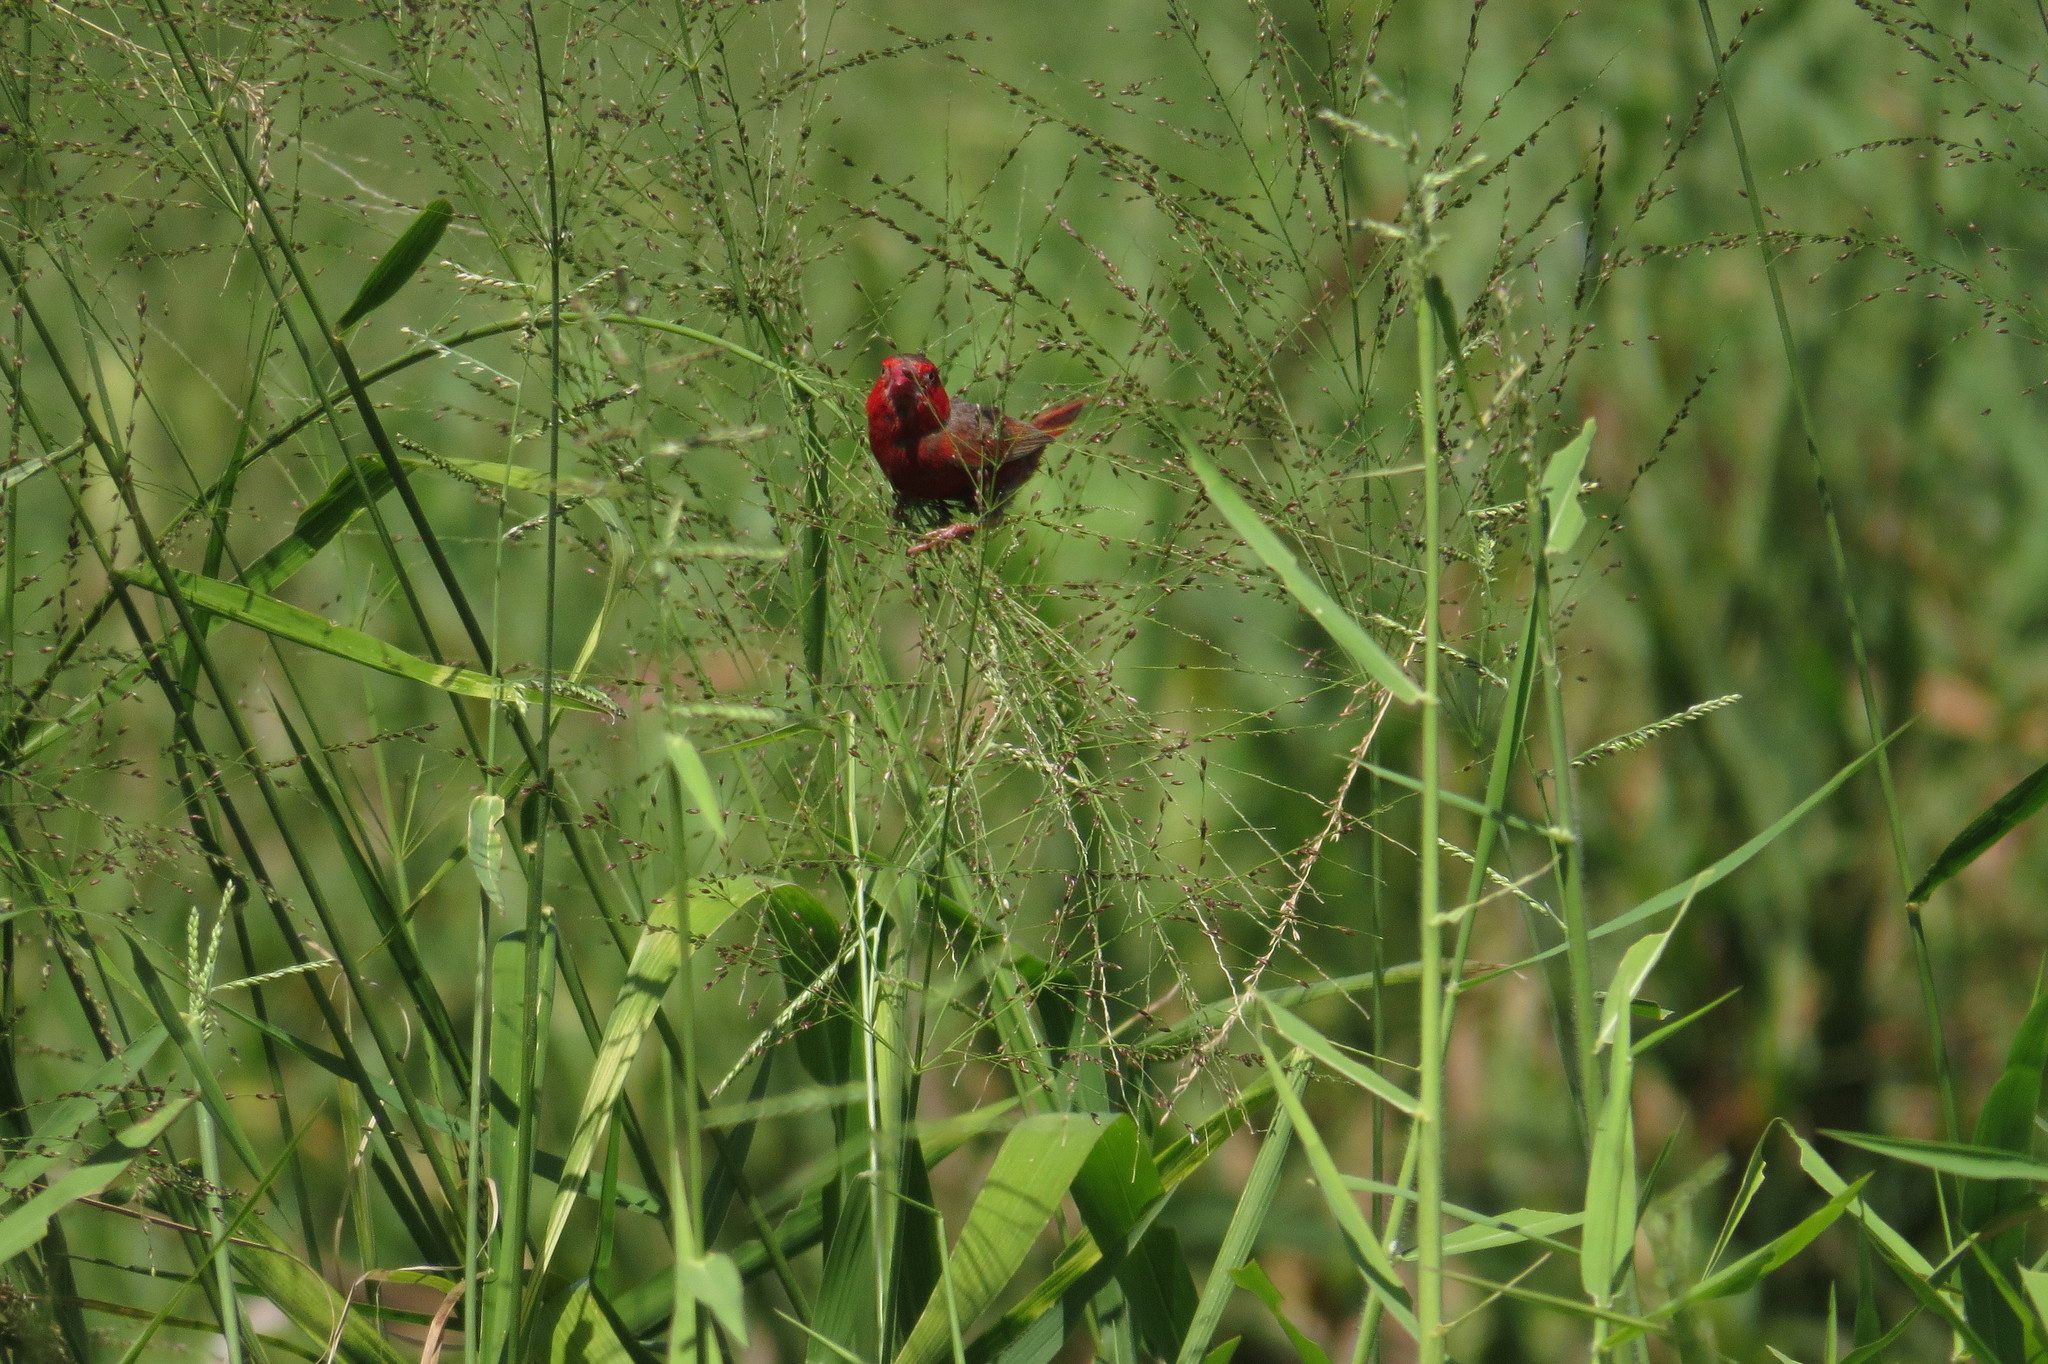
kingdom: Animalia
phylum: Chordata
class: Aves
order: Passeriformes
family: Estrildidae
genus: Neochmia
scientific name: Neochmia phaeton
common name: Crimson finch
